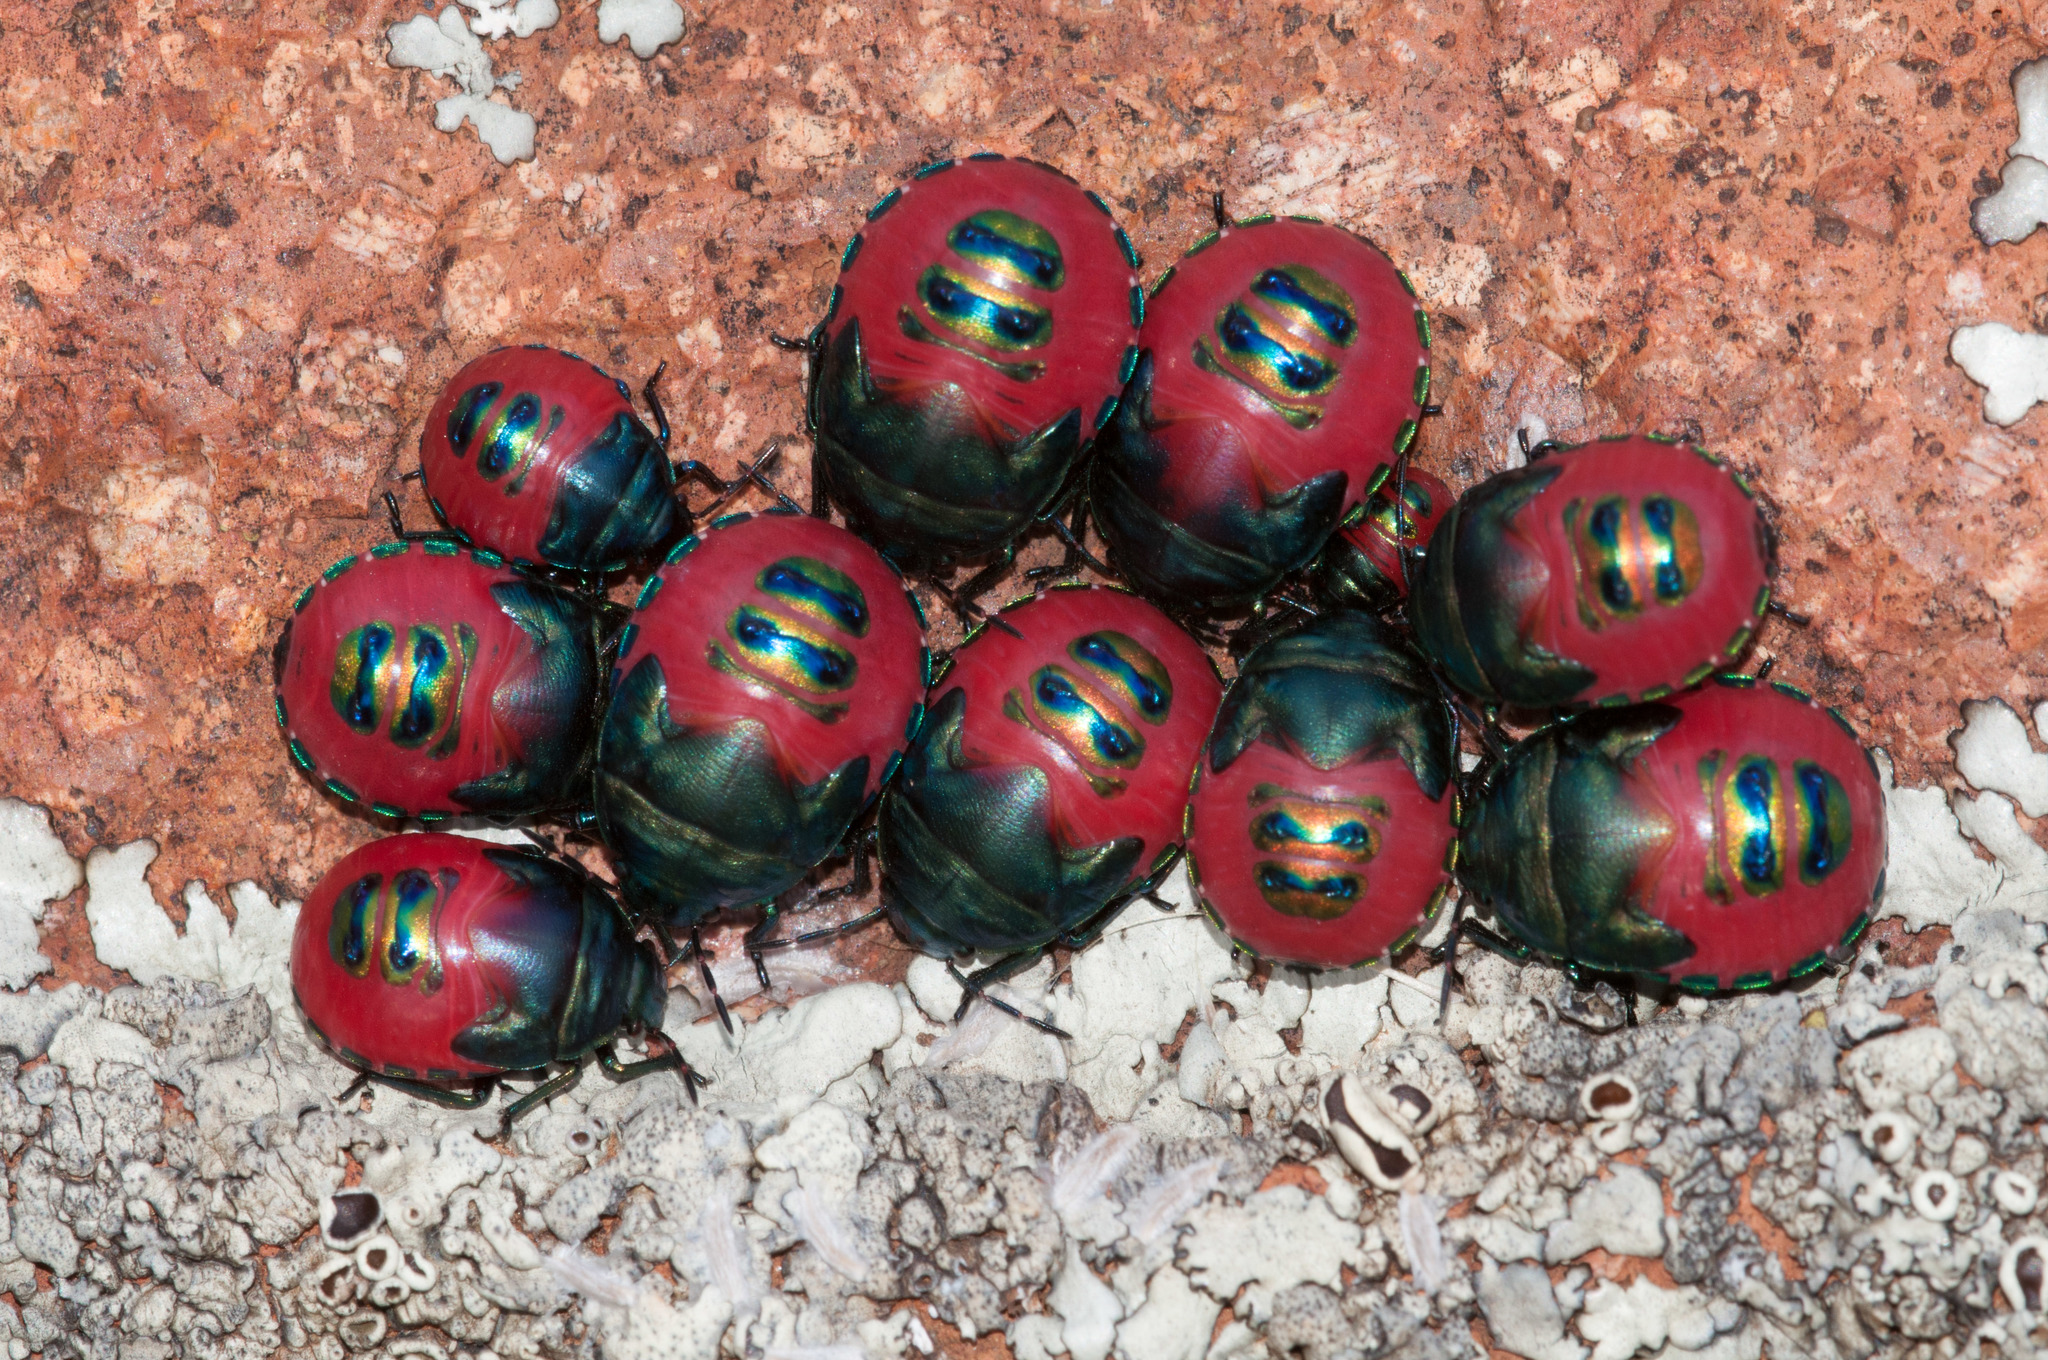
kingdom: Animalia
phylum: Arthropoda
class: Insecta
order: Hemiptera
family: Scutelleridae
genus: Choerocoris
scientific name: Choerocoris paganus
